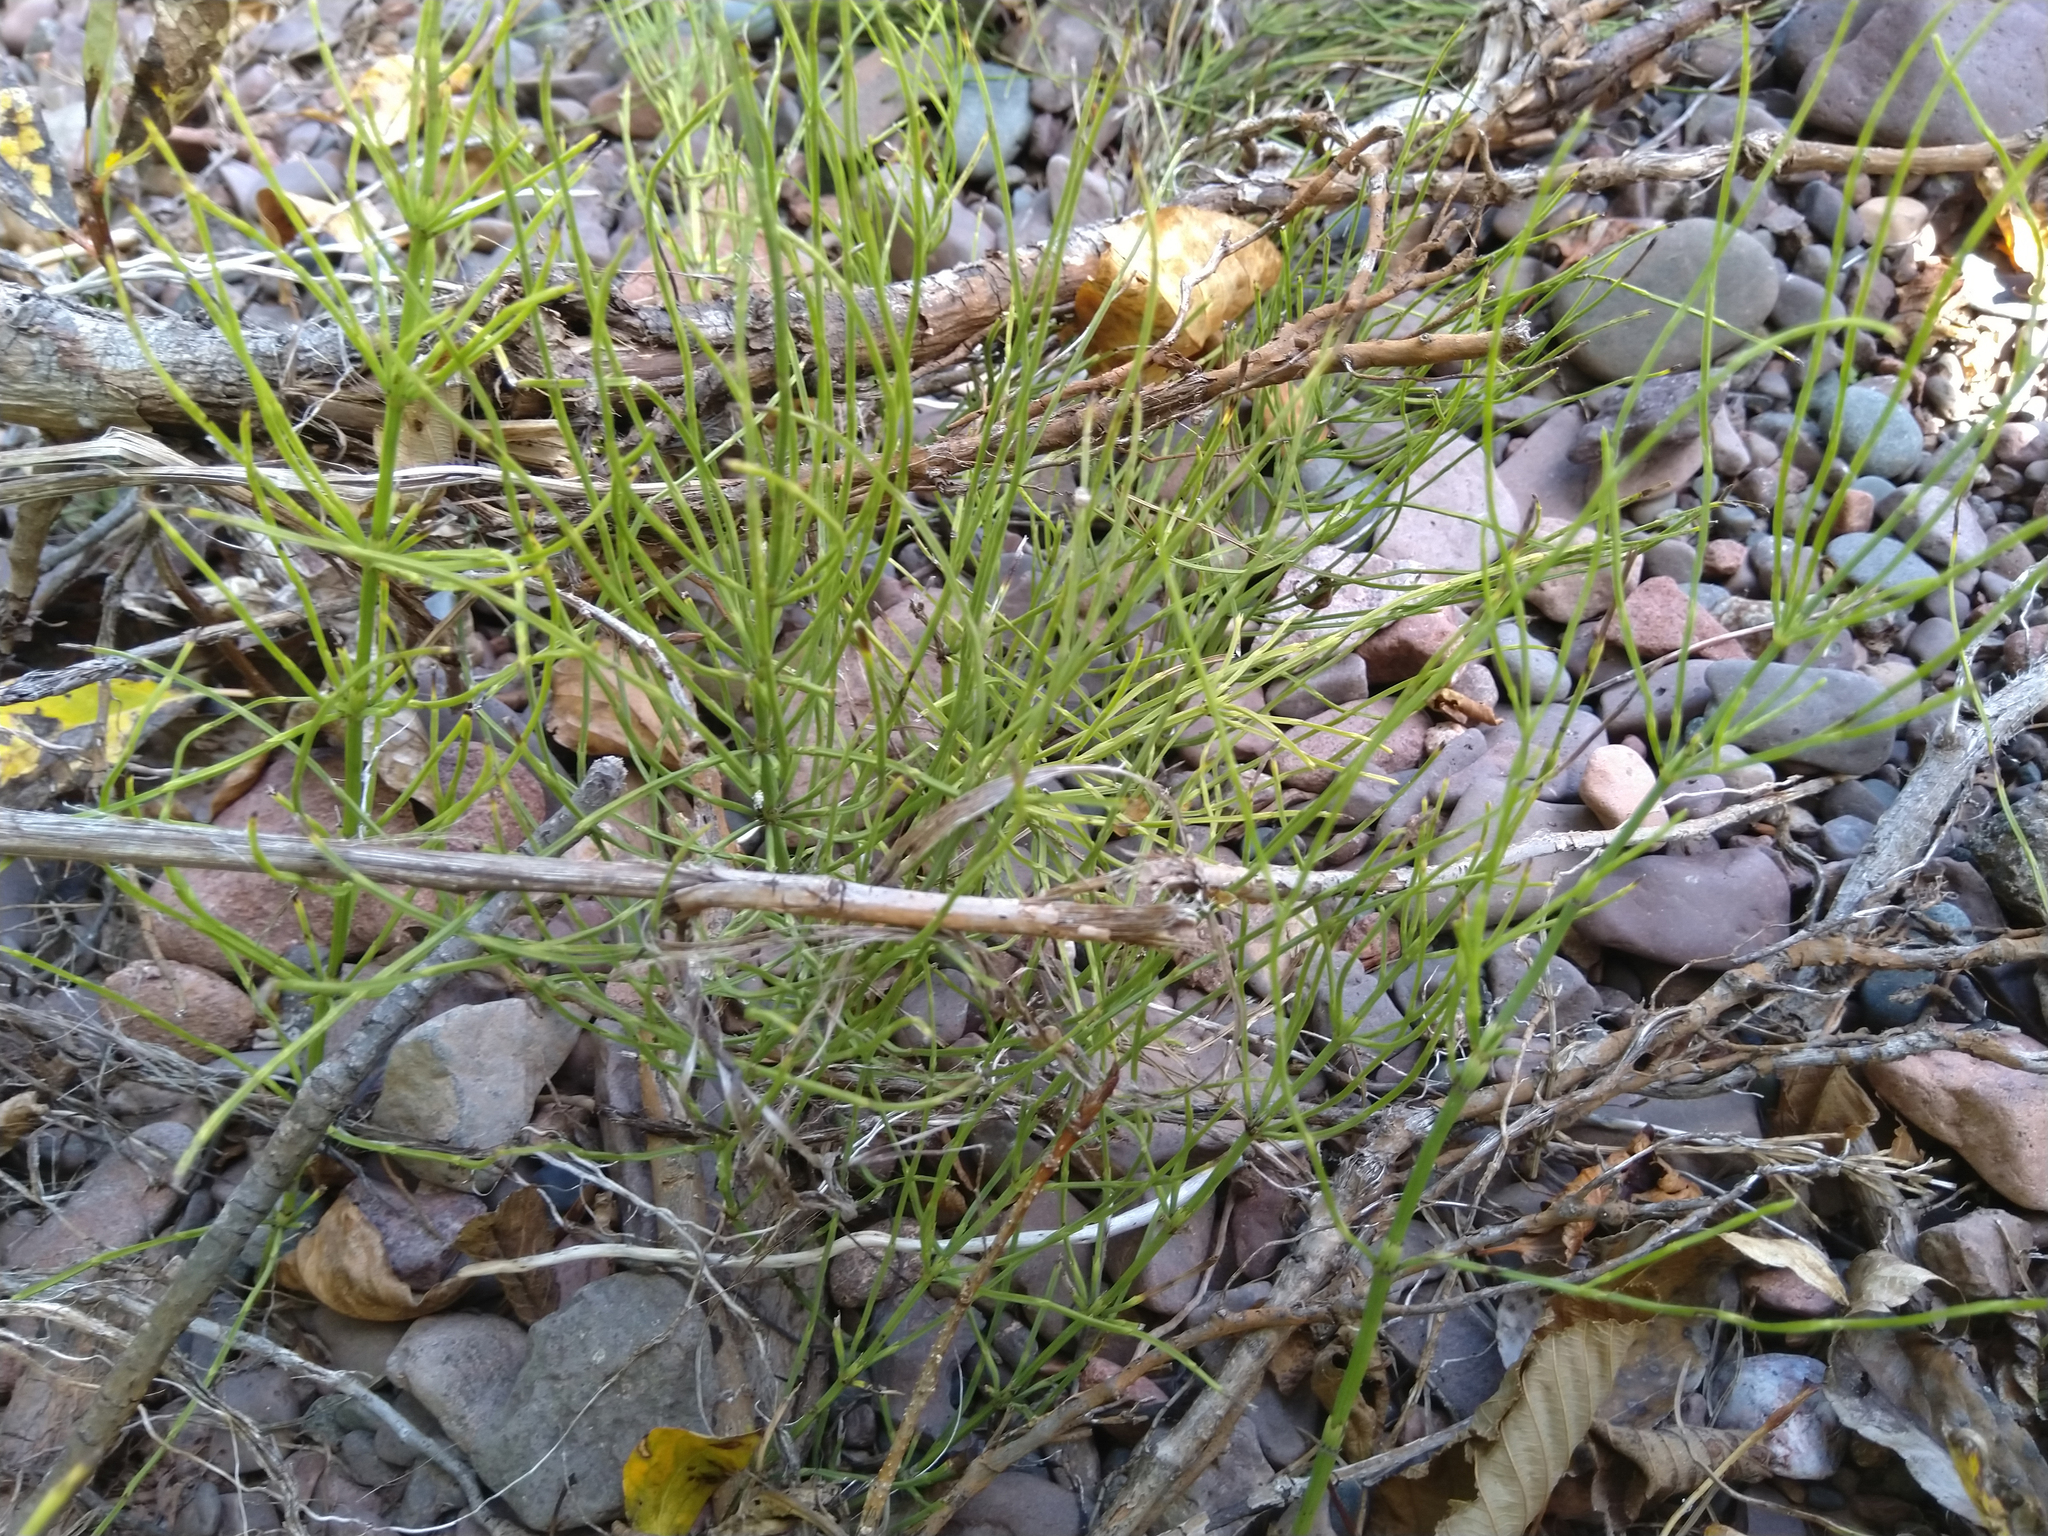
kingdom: Plantae
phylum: Tracheophyta
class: Polypodiopsida
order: Equisetales
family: Equisetaceae
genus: Equisetum
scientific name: Equisetum arvense
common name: Field horsetail
